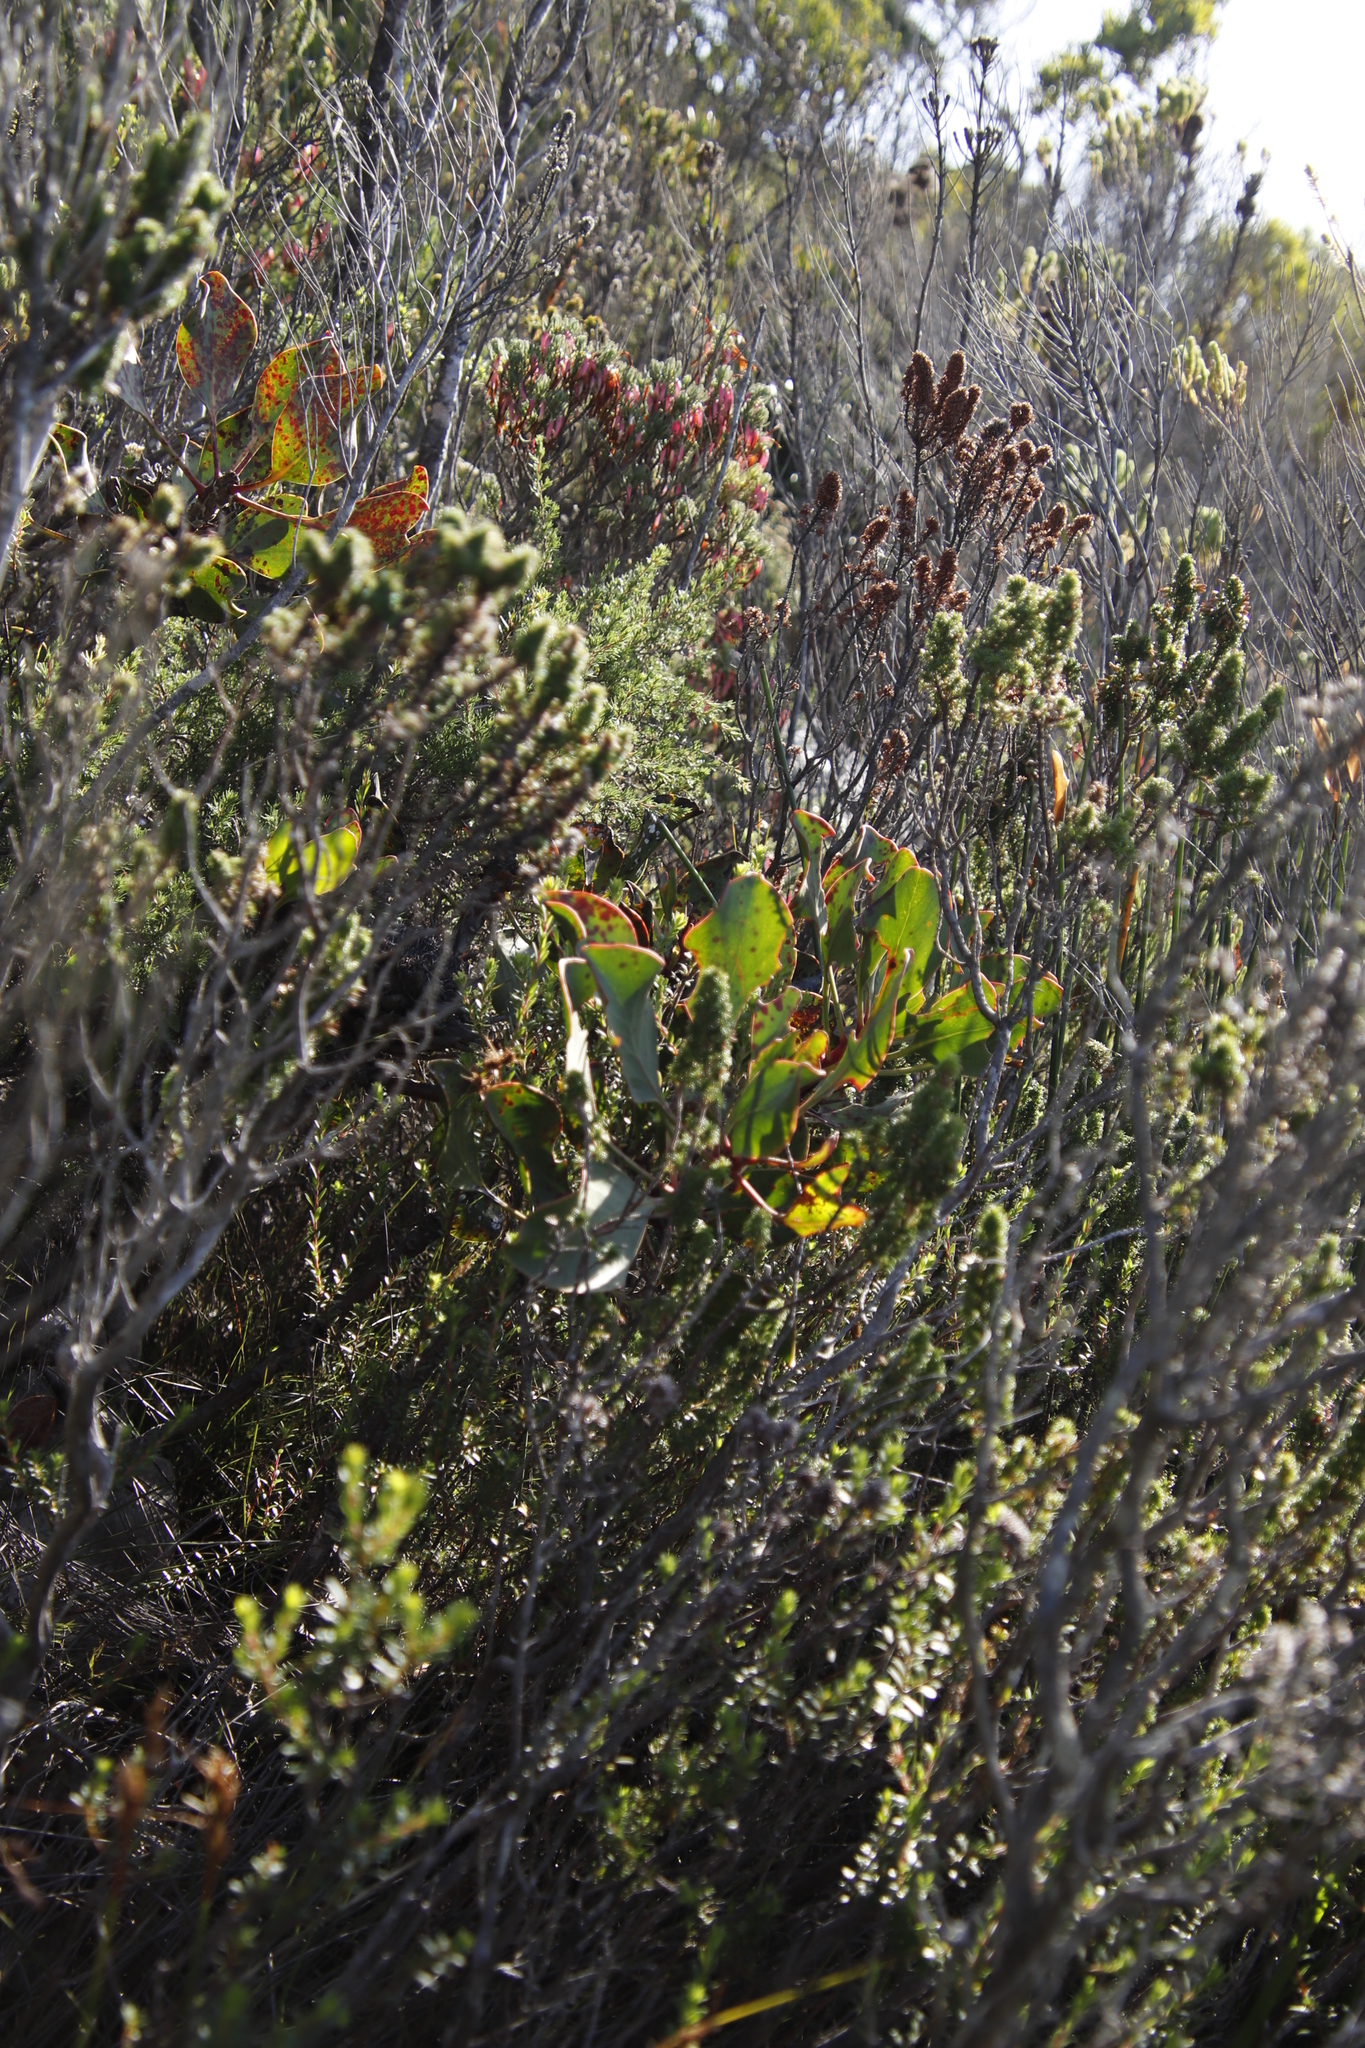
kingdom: Plantae
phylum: Tracheophyta
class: Magnoliopsida
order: Proteales
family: Proteaceae
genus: Protea
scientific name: Protea cynaroides
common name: King protea
